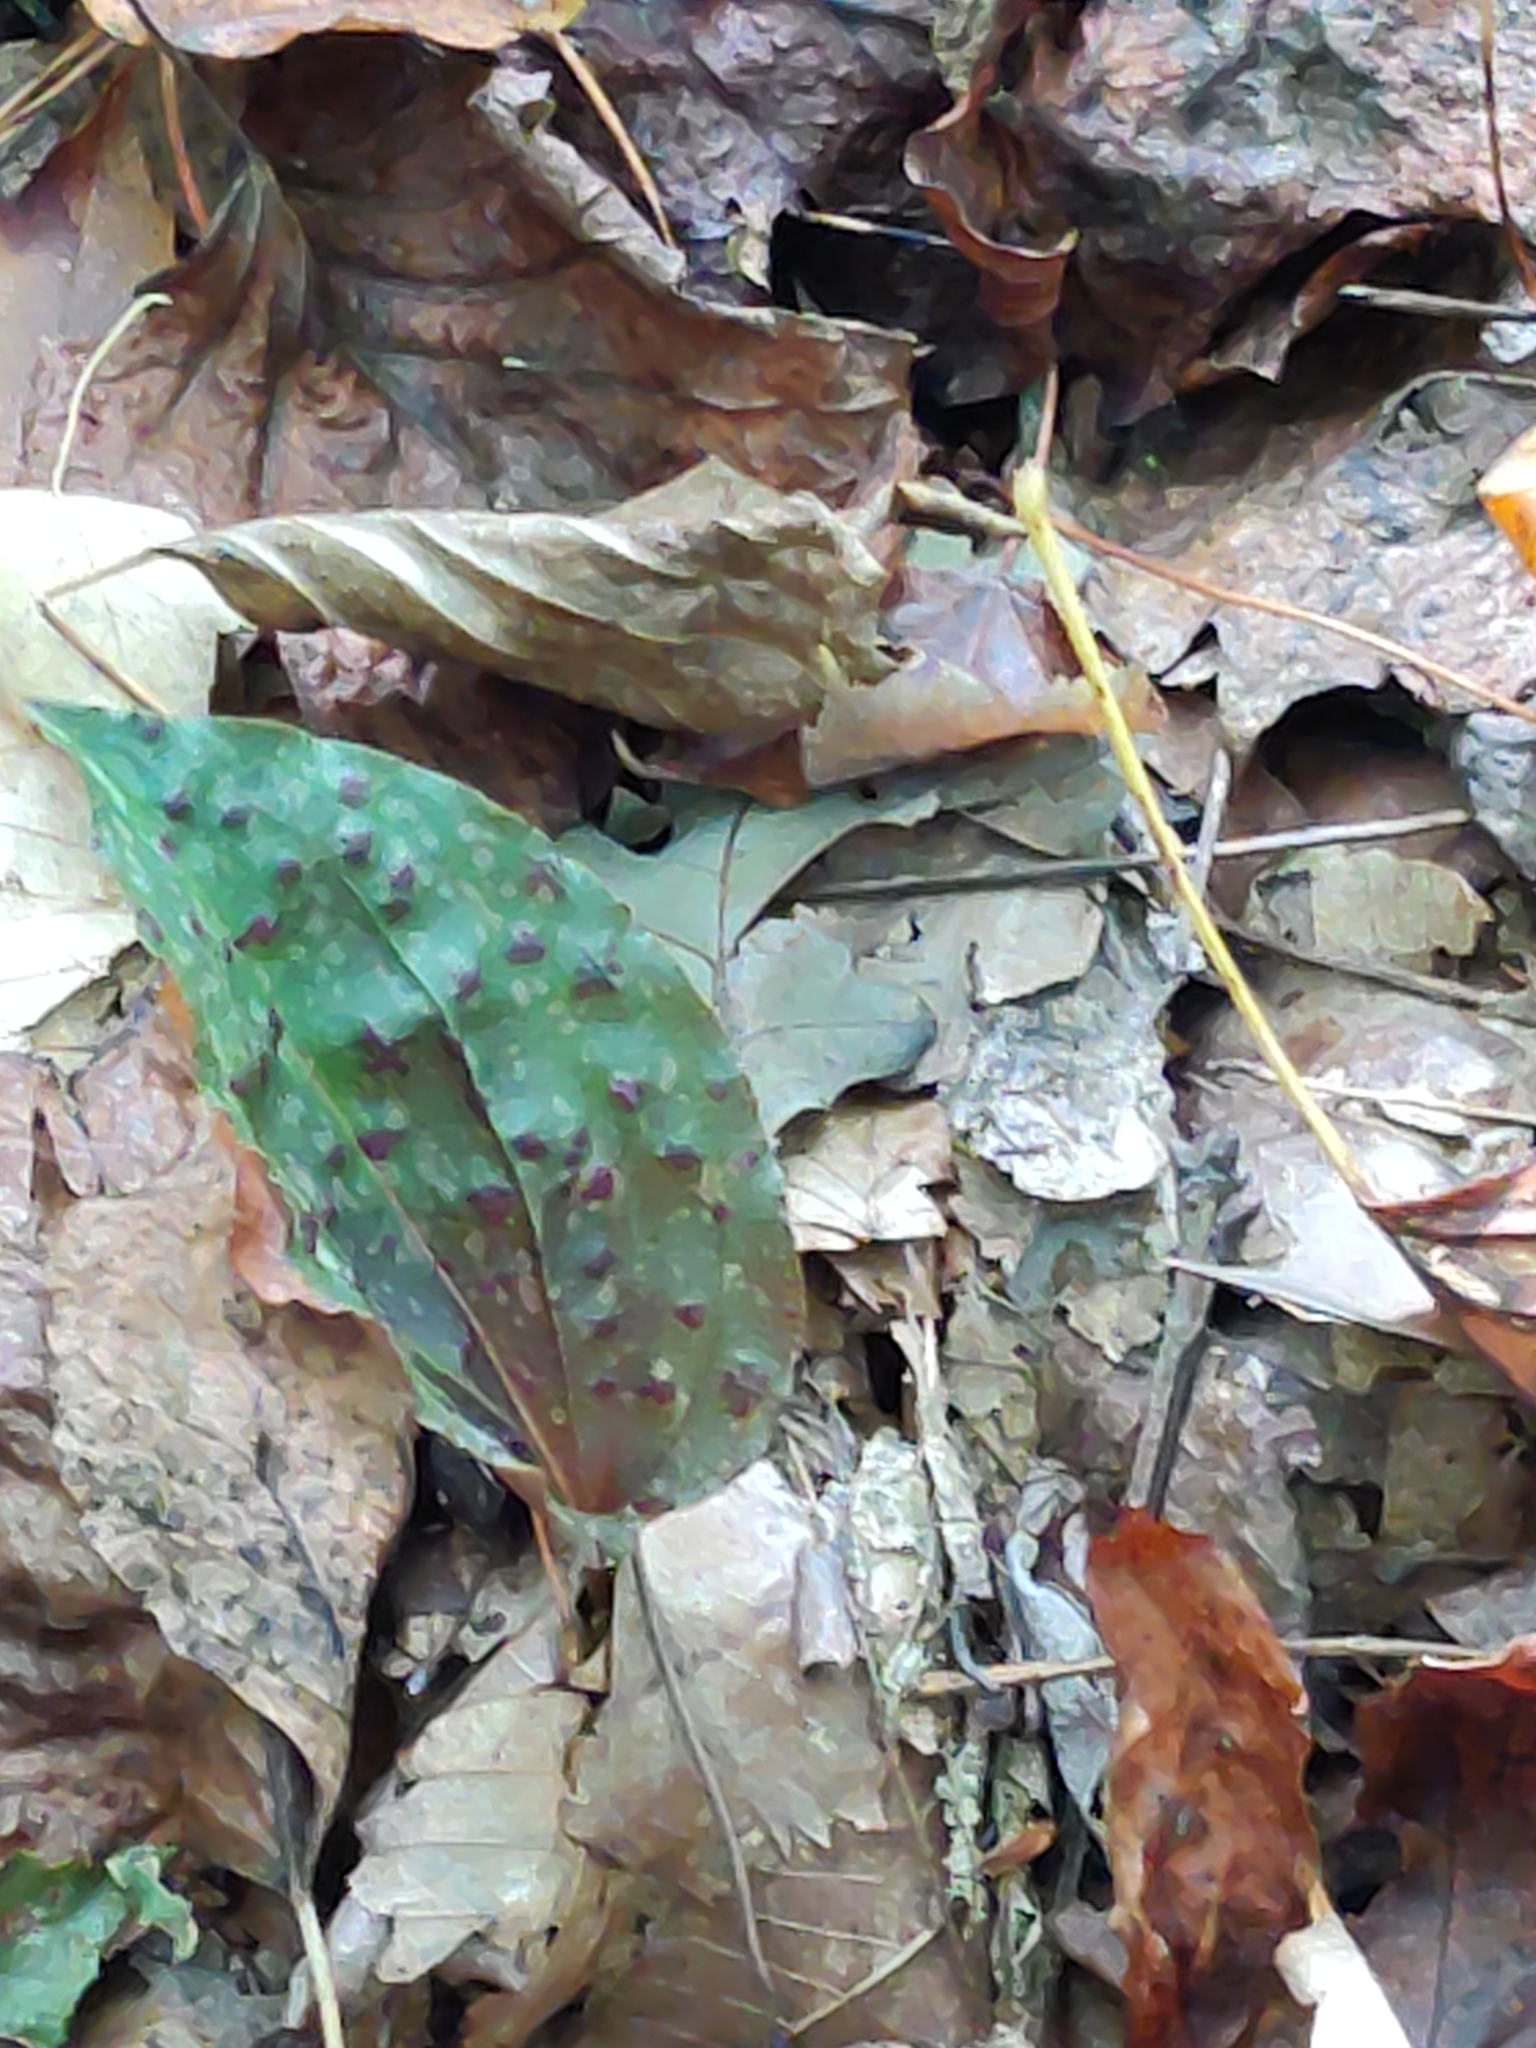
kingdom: Plantae
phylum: Tracheophyta
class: Liliopsida
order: Asparagales
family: Orchidaceae
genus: Tipularia
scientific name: Tipularia discolor
